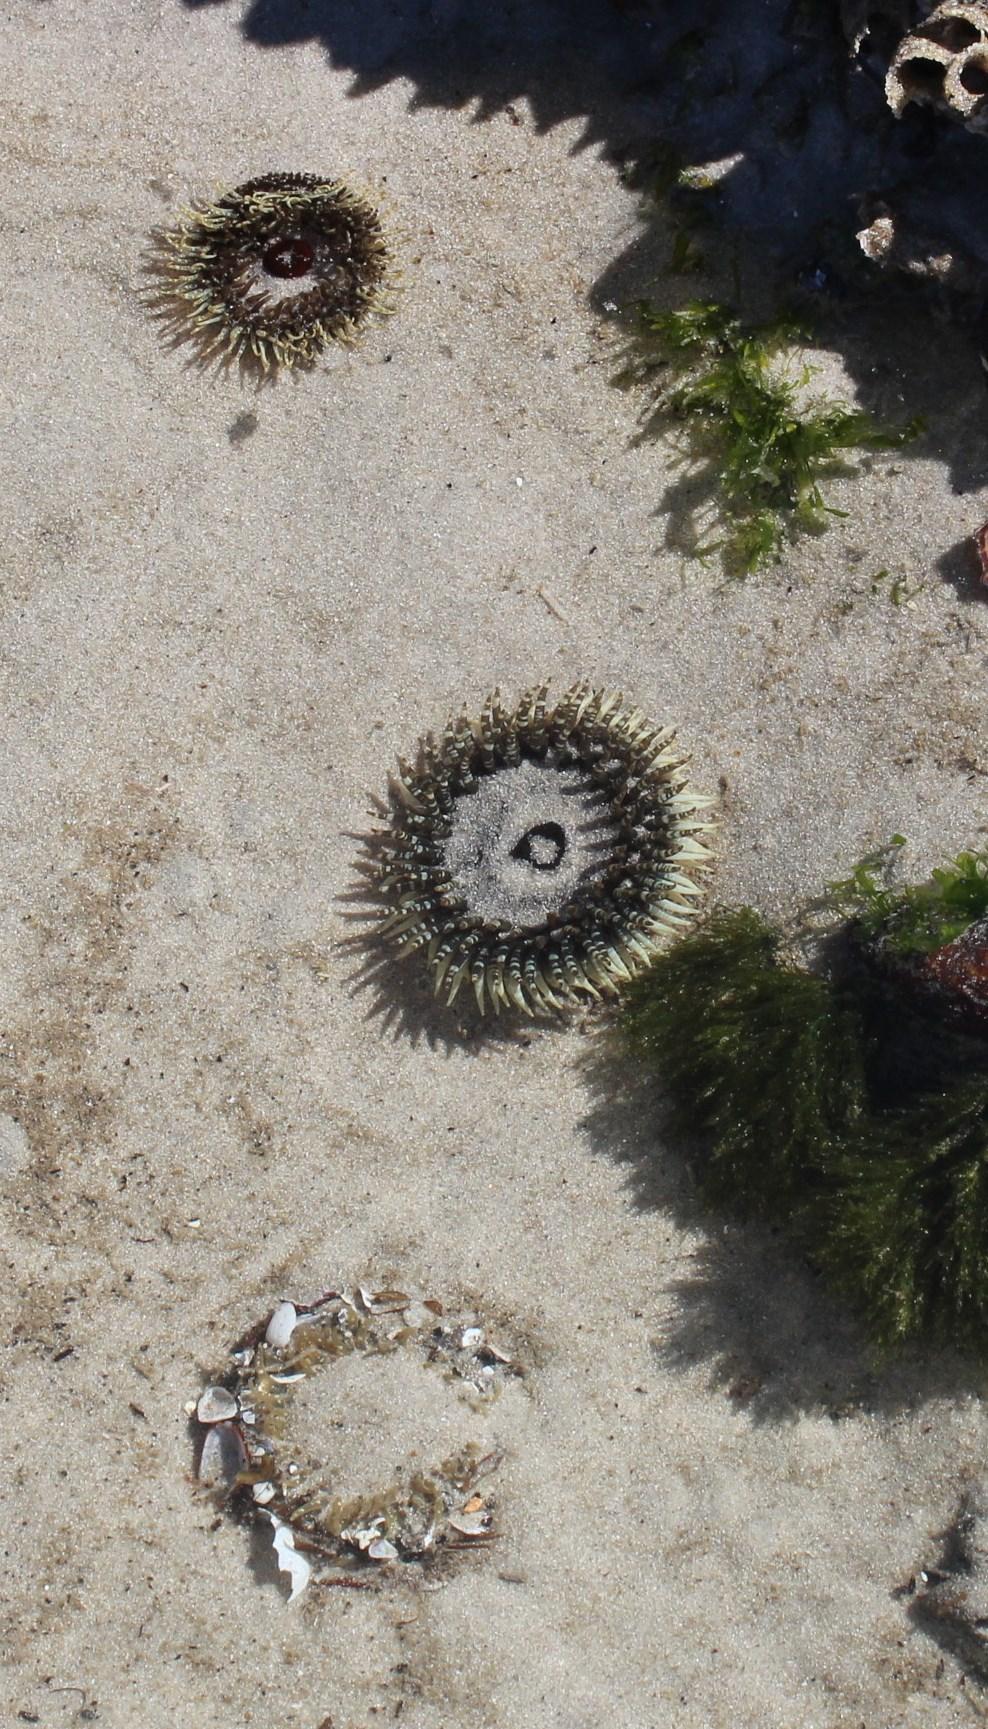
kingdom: Animalia
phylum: Cnidaria
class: Anthozoa
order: Actiniaria
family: Actiniidae
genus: Bunodactis
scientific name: Bunodactis reynaudi
